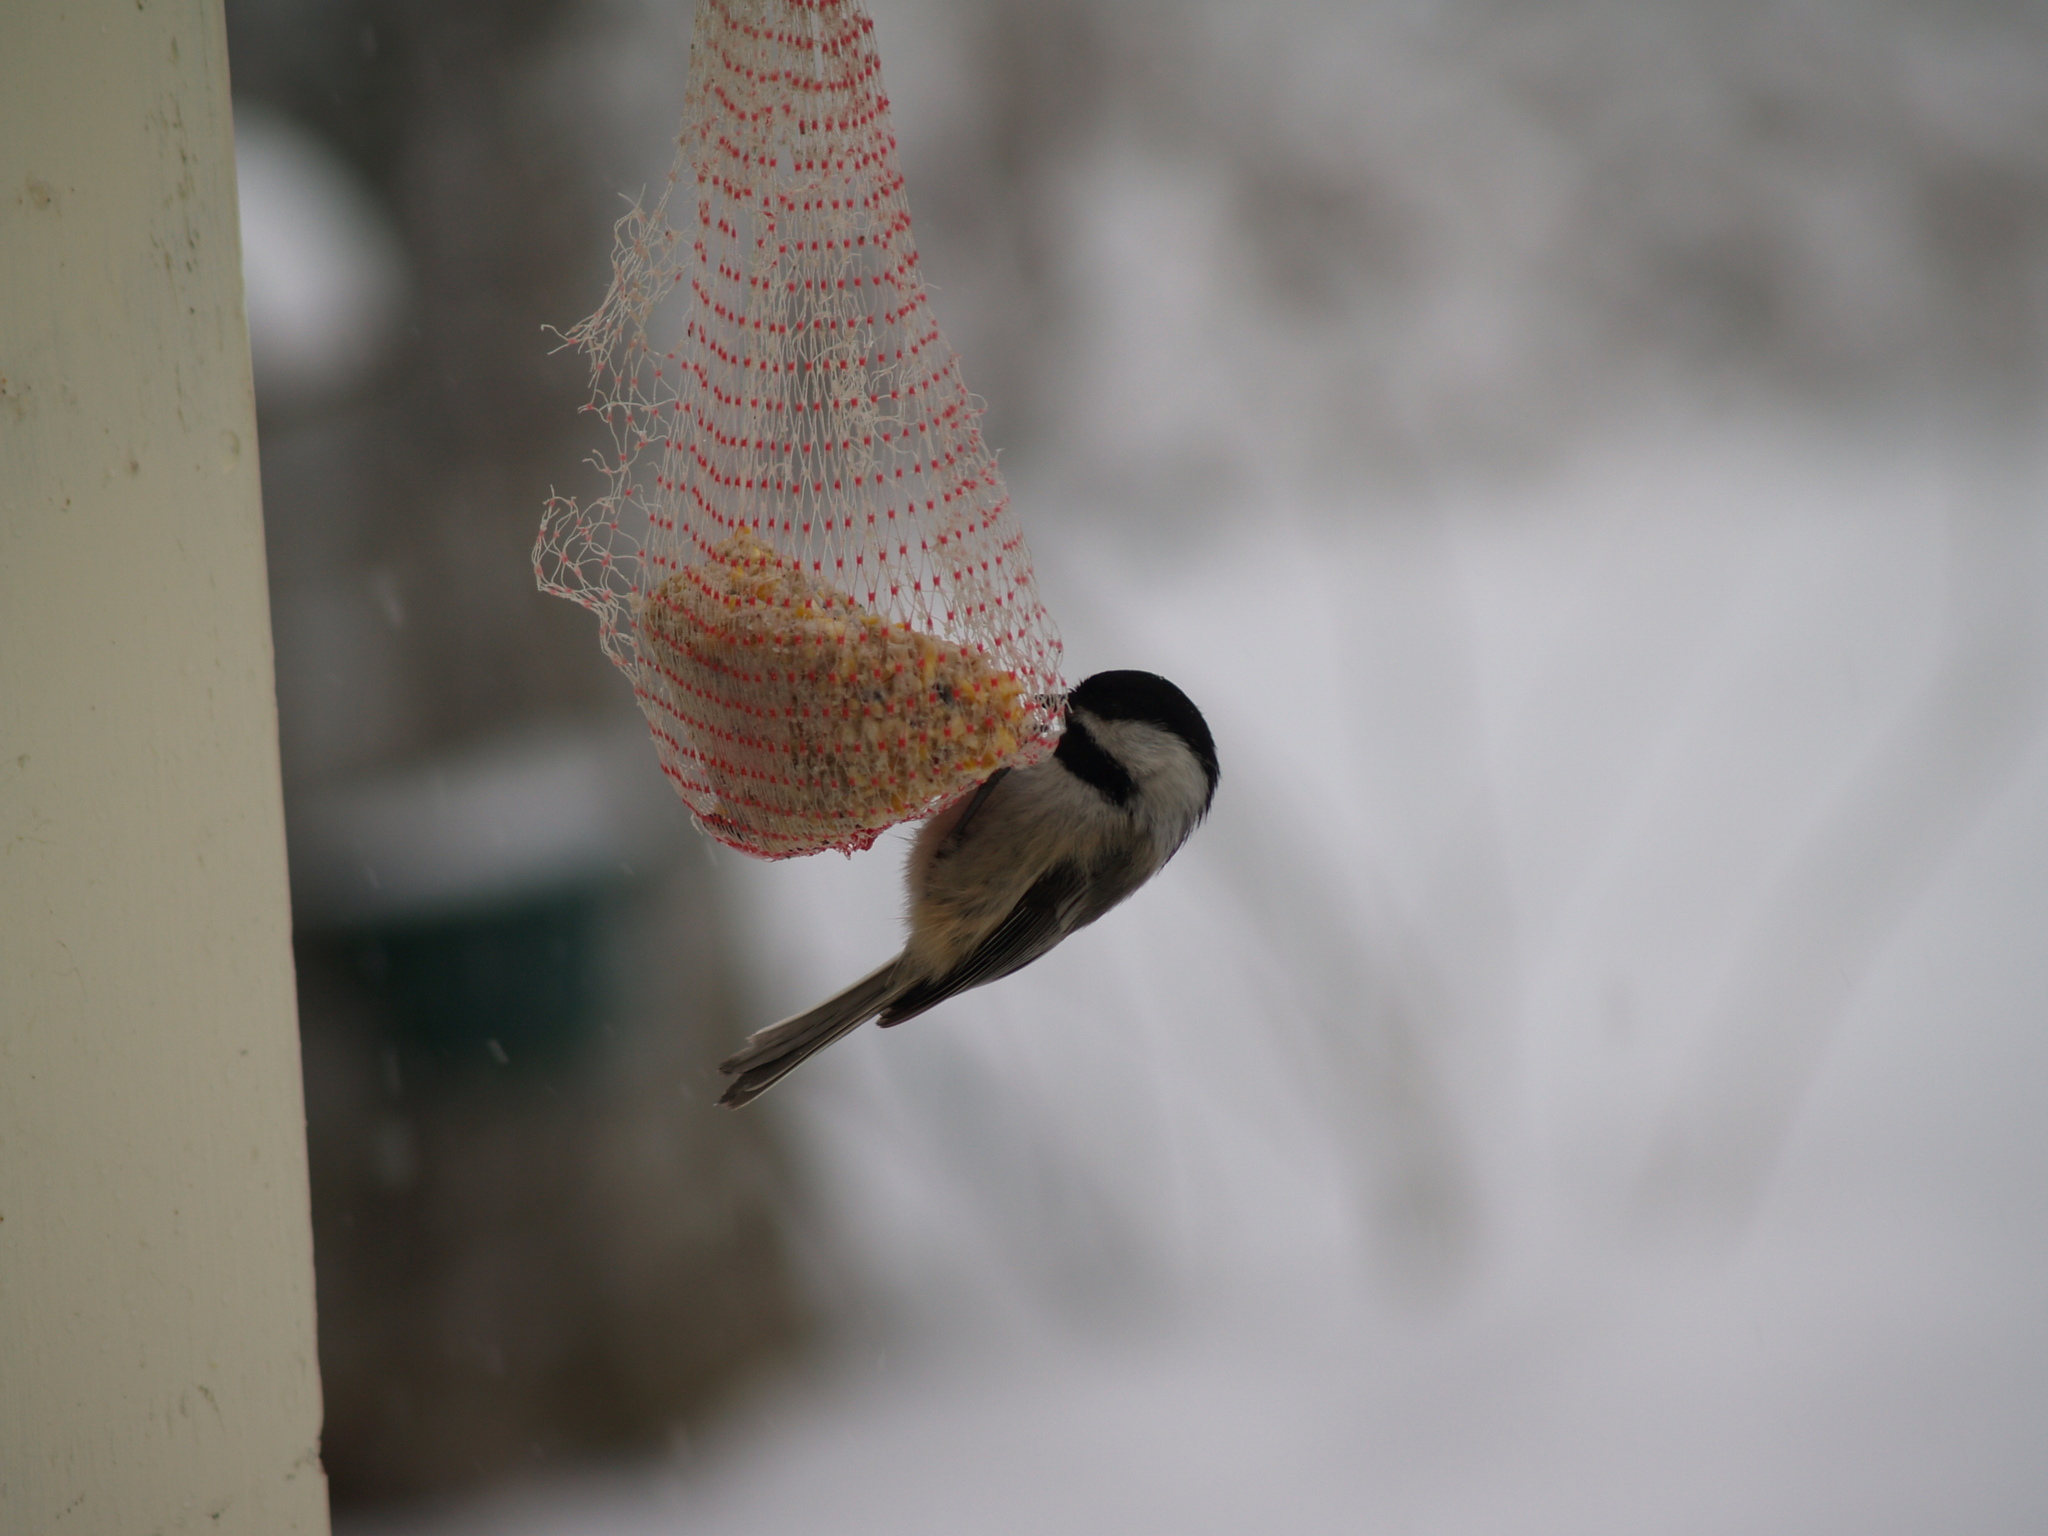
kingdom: Animalia
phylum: Chordata
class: Aves
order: Passeriformes
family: Paridae
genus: Poecile
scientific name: Poecile atricapillus
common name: Black-capped chickadee
